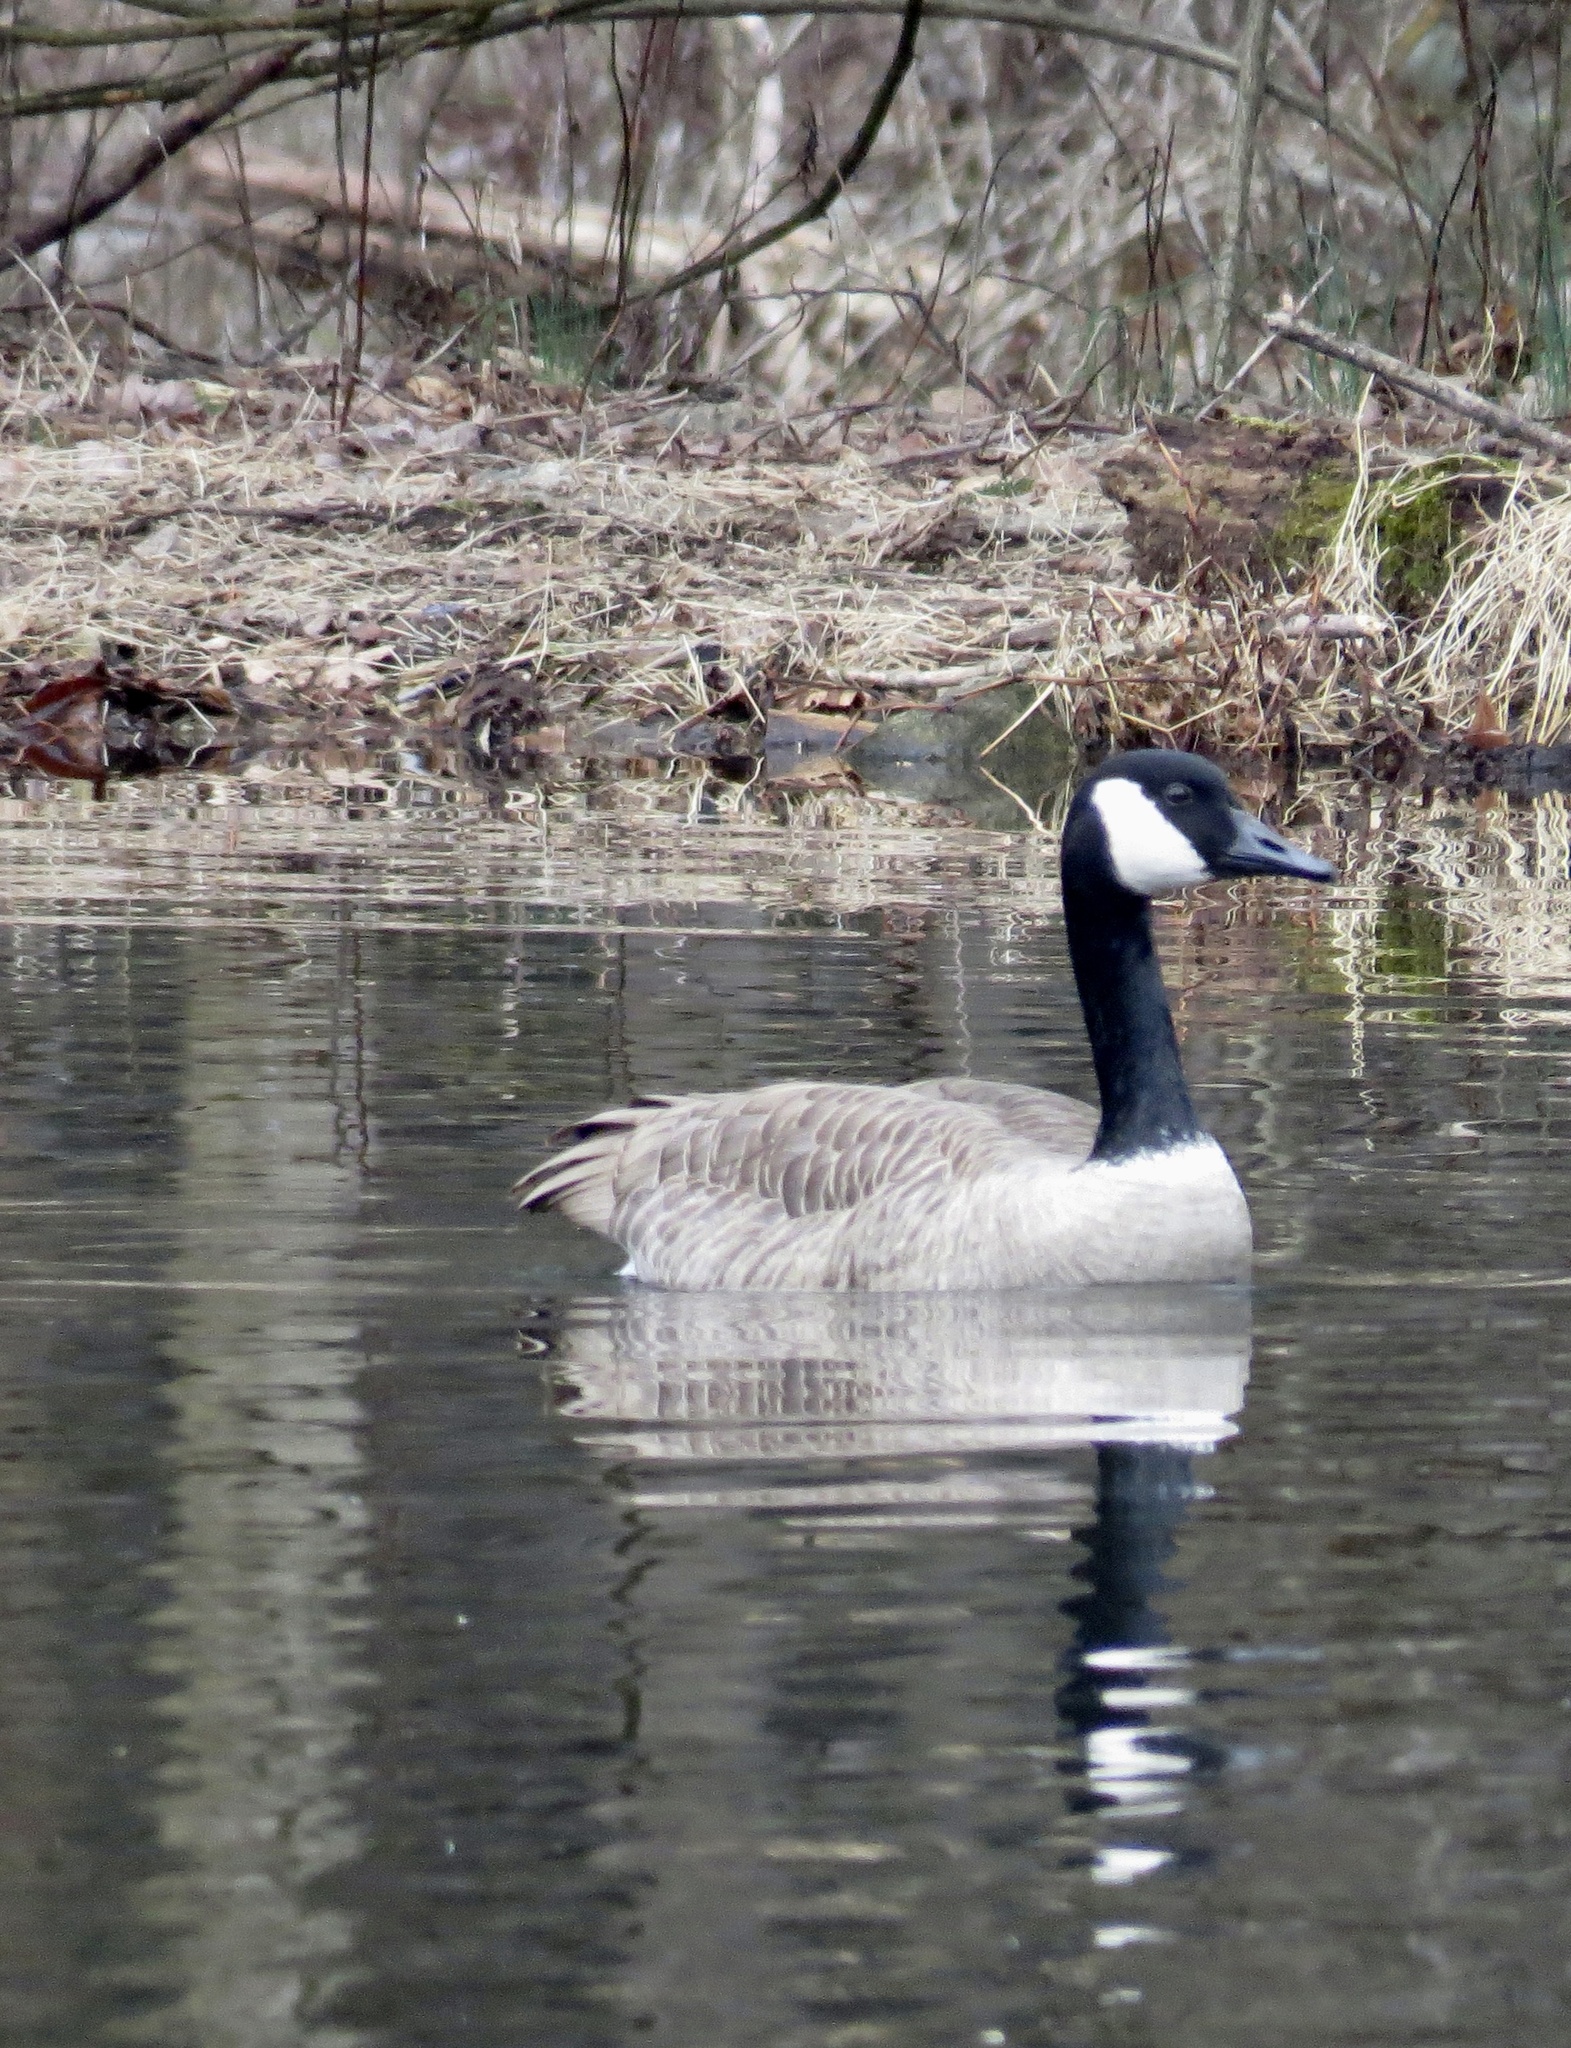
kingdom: Animalia
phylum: Chordata
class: Aves
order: Anseriformes
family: Anatidae
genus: Branta
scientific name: Branta canadensis
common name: Canada goose
